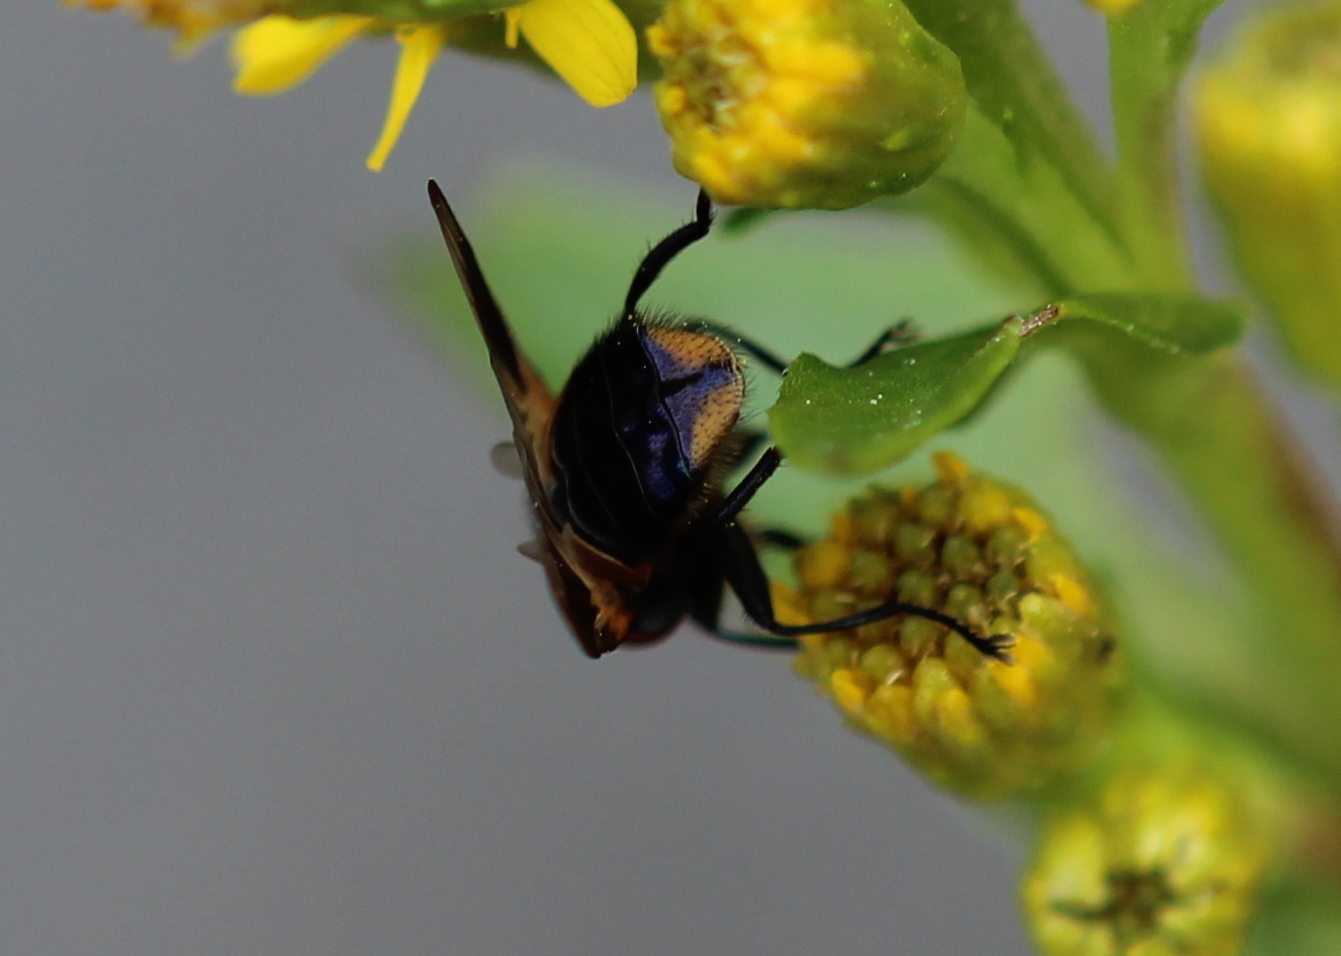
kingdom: Animalia
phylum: Arthropoda
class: Insecta
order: Diptera
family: Tachinidae
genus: Phasia
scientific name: Phasia aurulans
